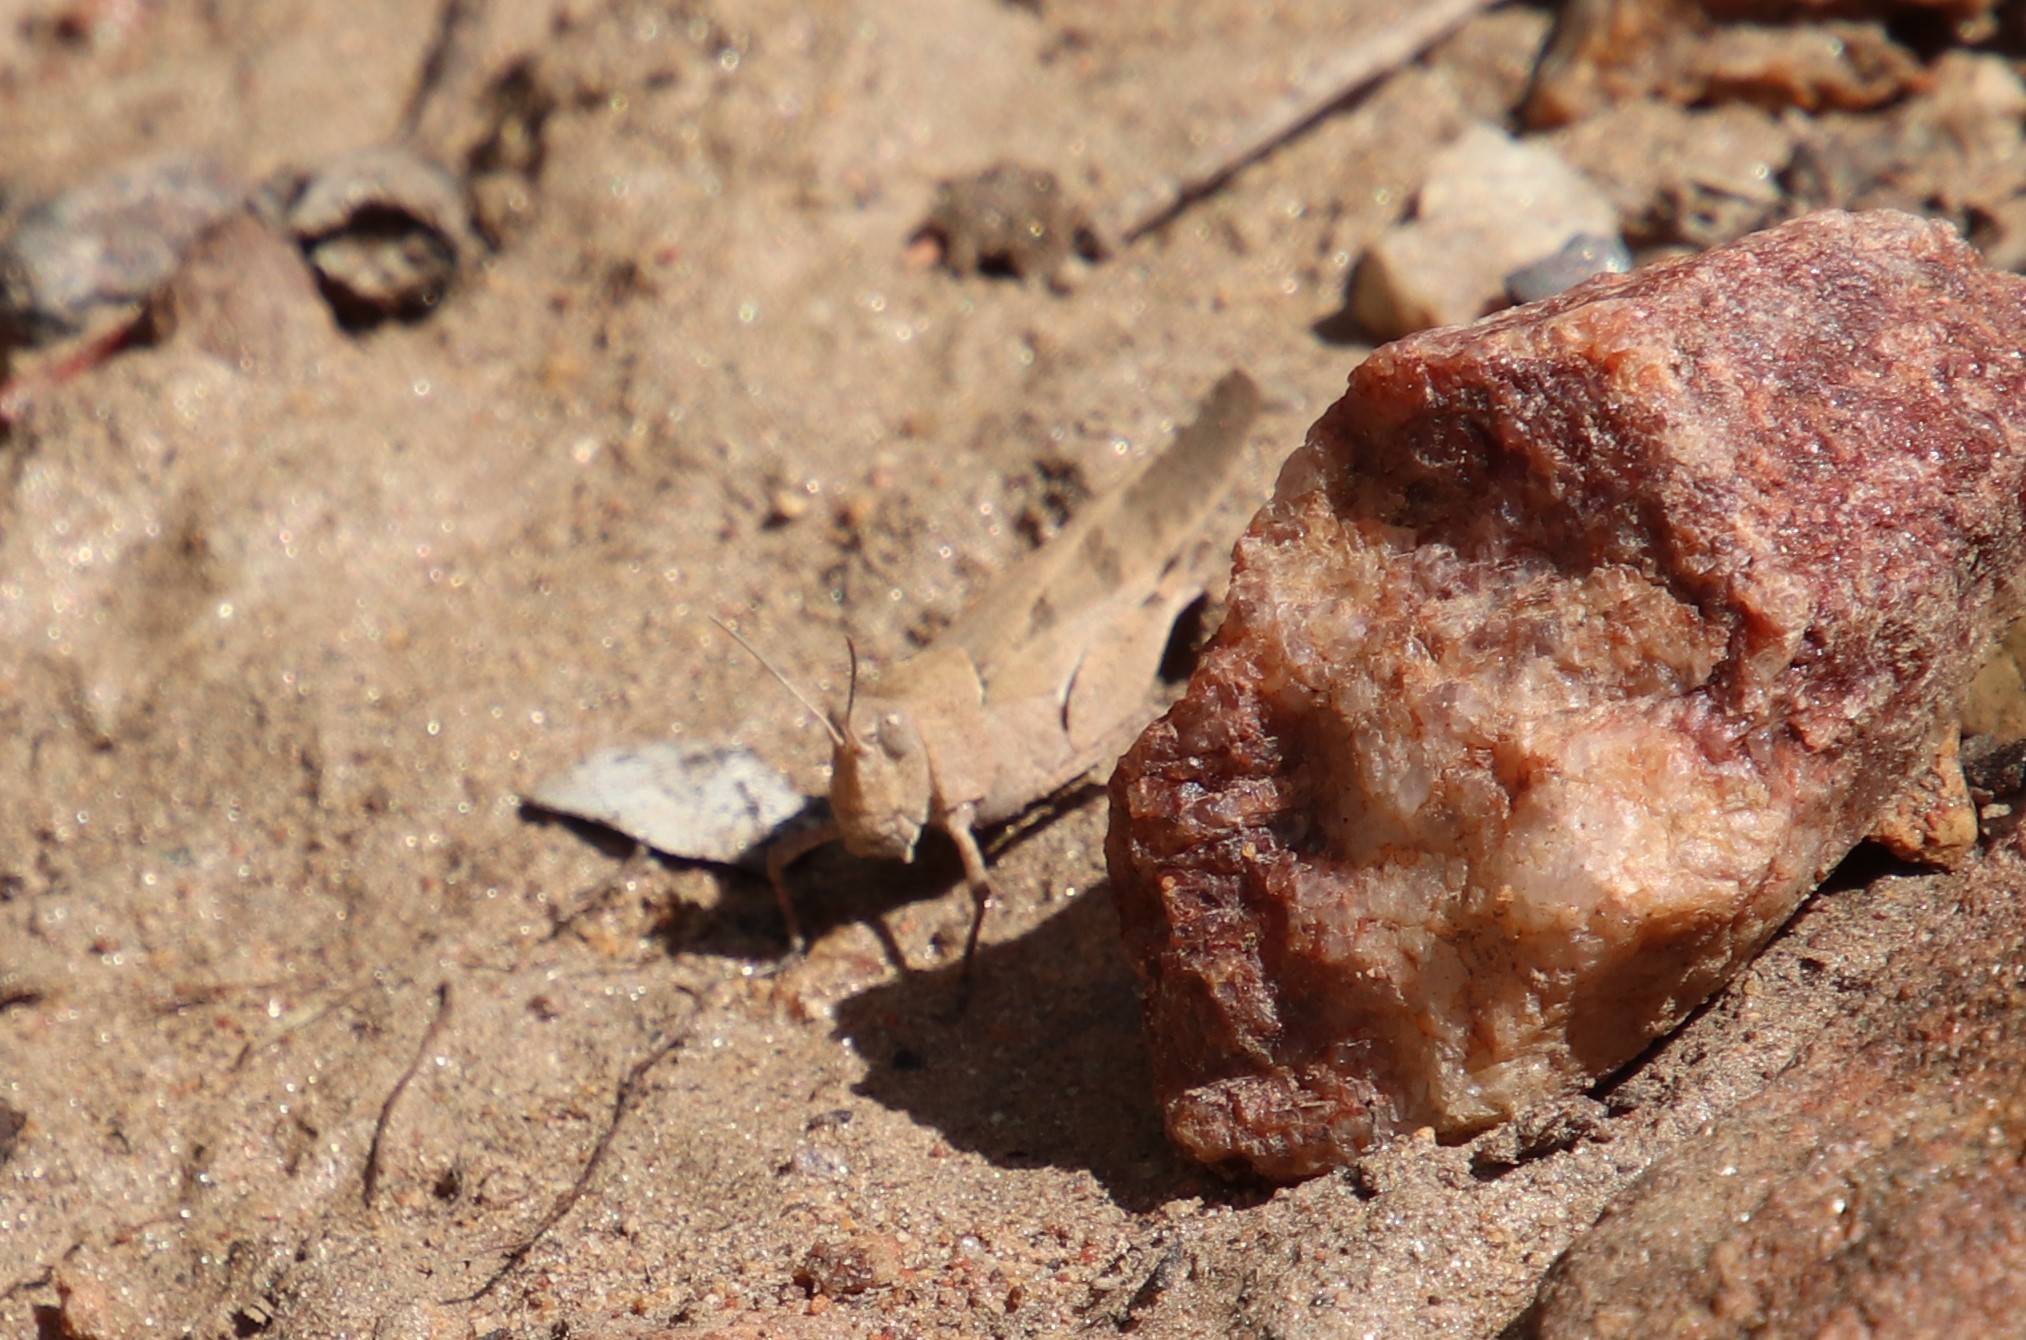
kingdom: Animalia
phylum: Arthropoda
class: Insecta
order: Orthoptera
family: Acrididae
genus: Trimerotropis
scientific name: Trimerotropis thalassica
